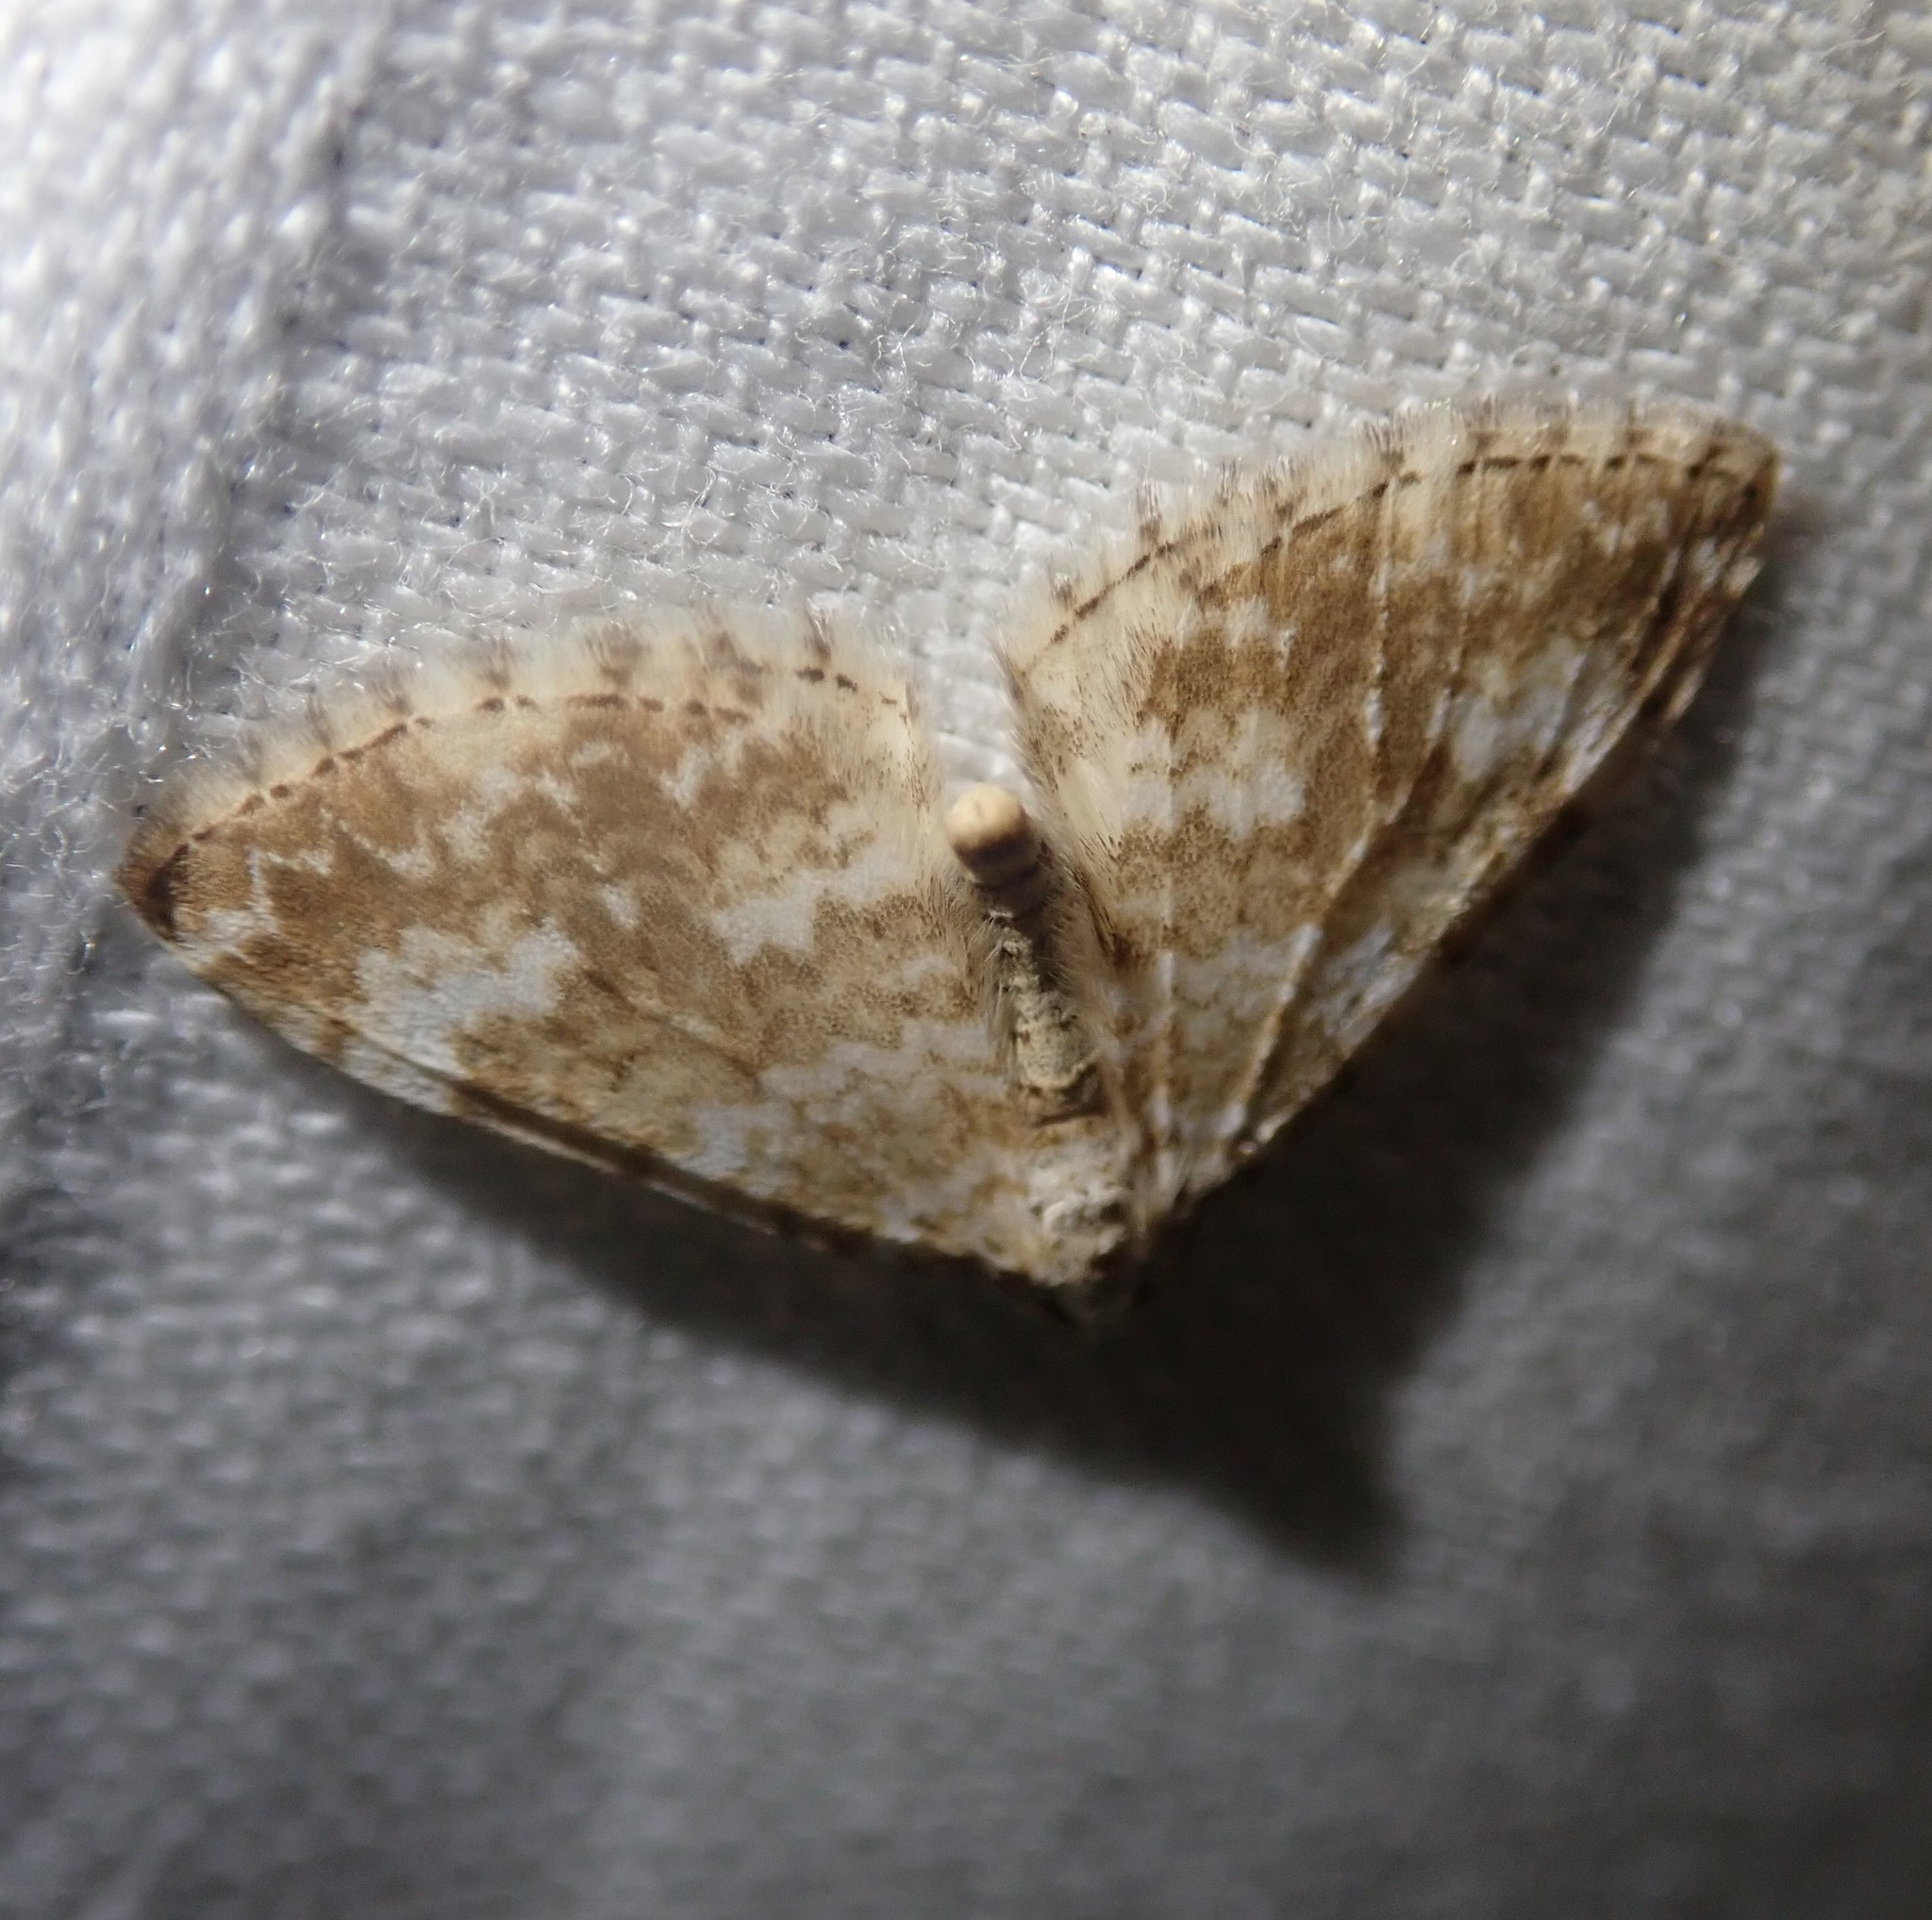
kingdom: Animalia
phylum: Arthropoda
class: Insecta
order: Lepidoptera
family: Geometridae
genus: Perizoma
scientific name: Perizoma flavofasciata
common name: Sandy carpet
